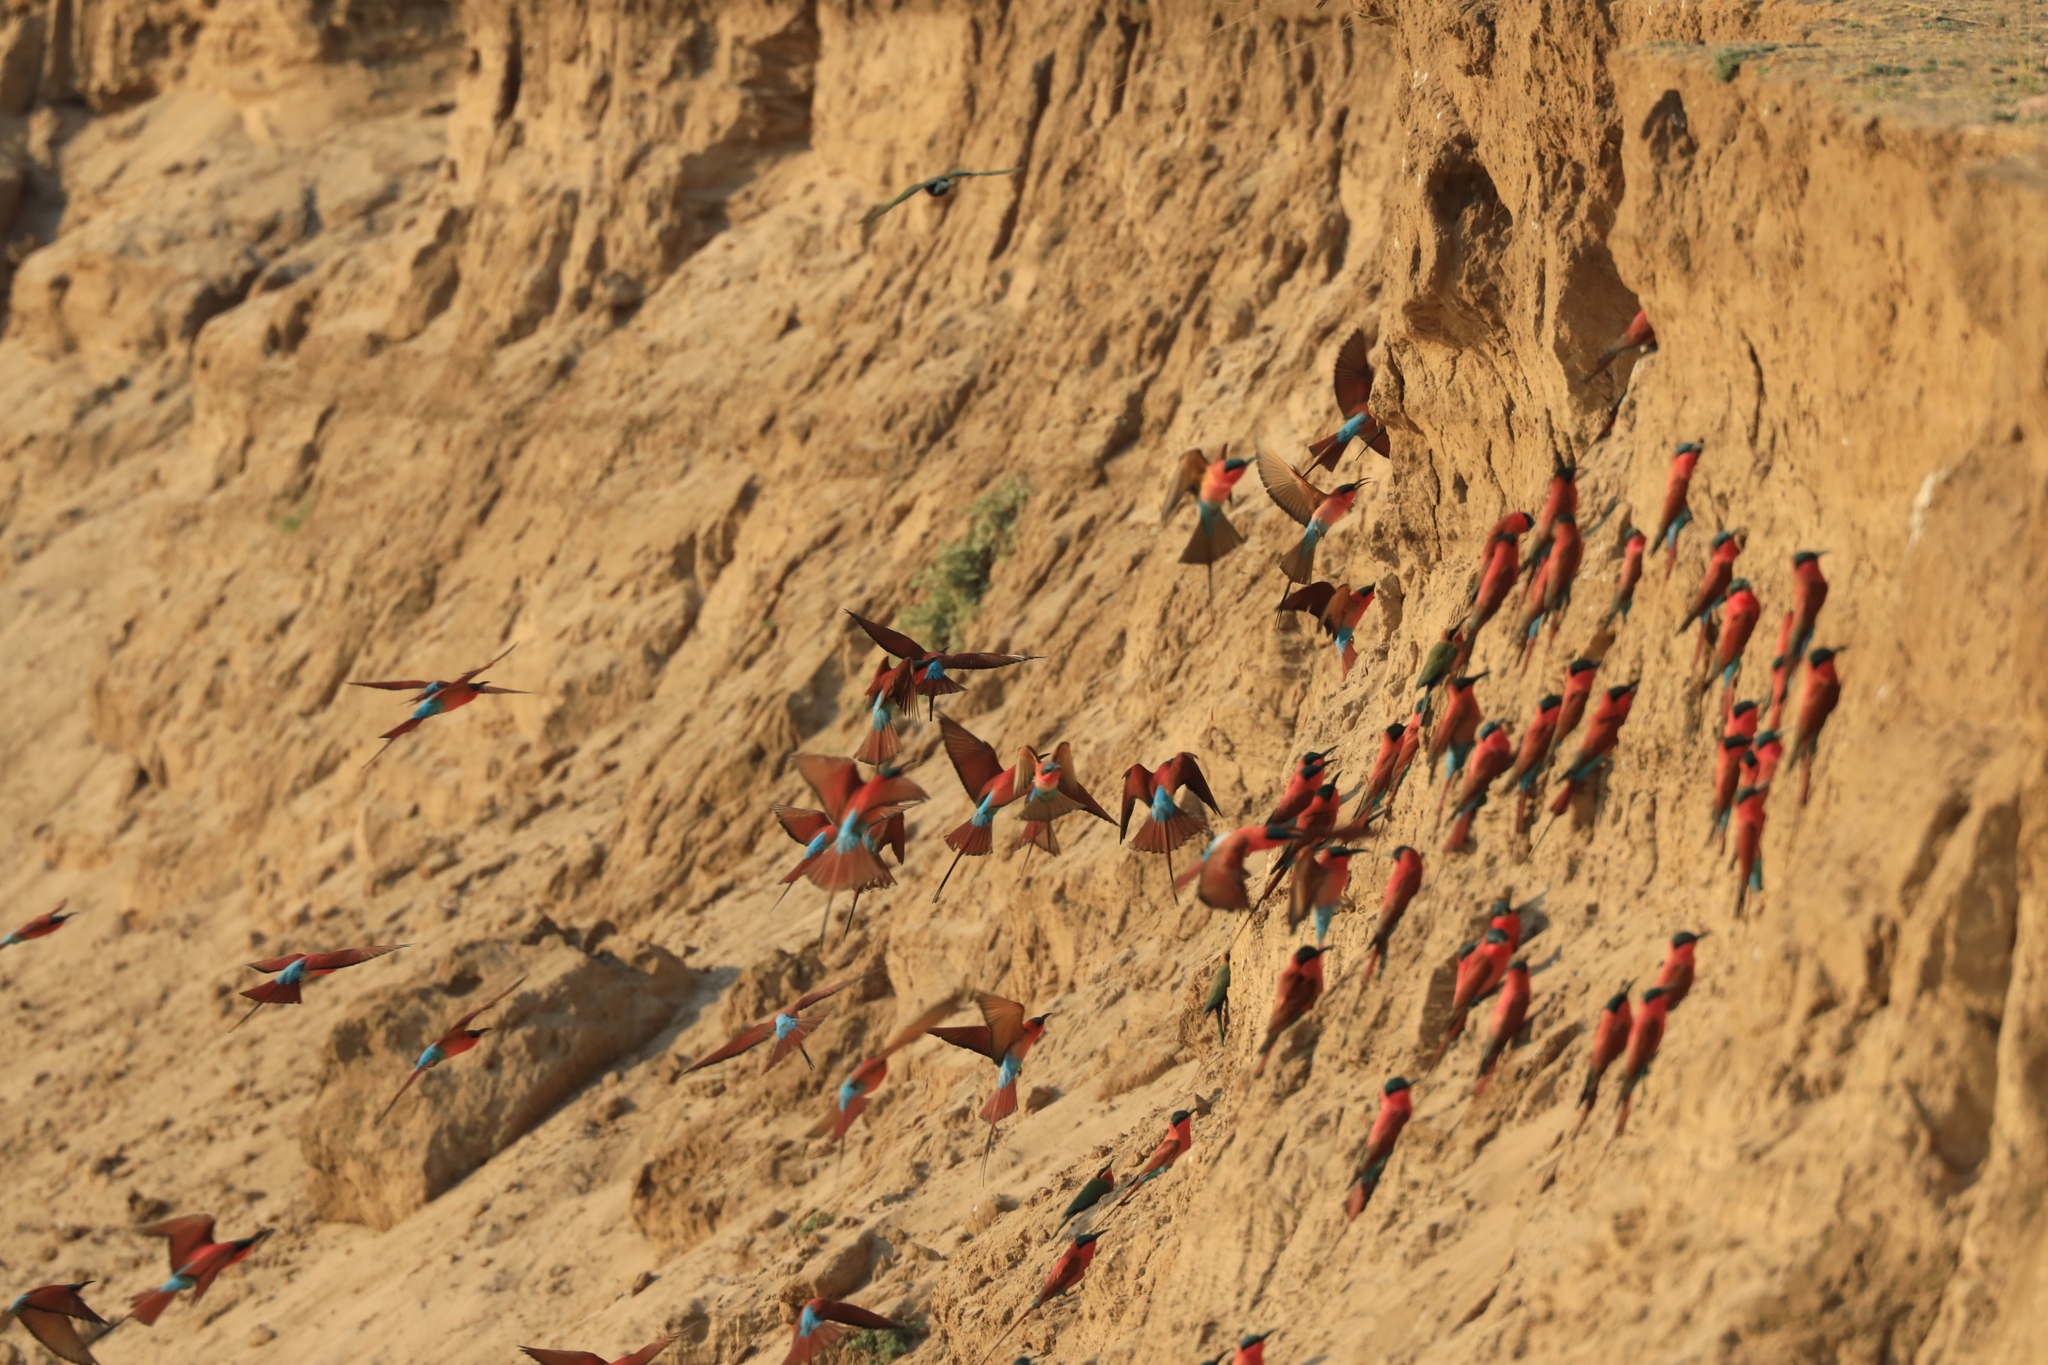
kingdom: Animalia
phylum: Chordata
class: Aves
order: Coraciiformes
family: Meropidae
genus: Merops
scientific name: Merops nubicoides
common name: Southern carmine bee-eater
